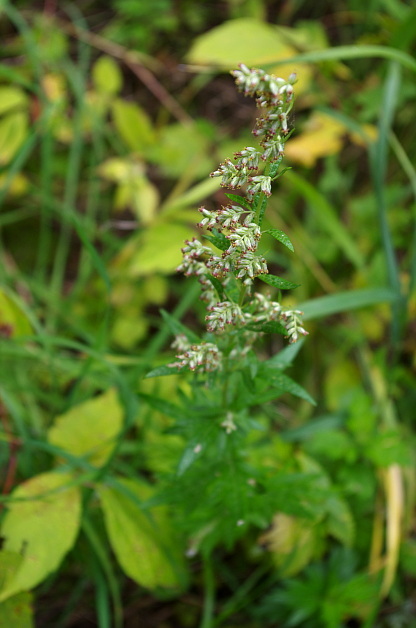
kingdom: Plantae
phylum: Tracheophyta
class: Magnoliopsida
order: Asterales
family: Asteraceae
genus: Artemisia
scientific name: Artemisia vulgaris
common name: Mugwort
